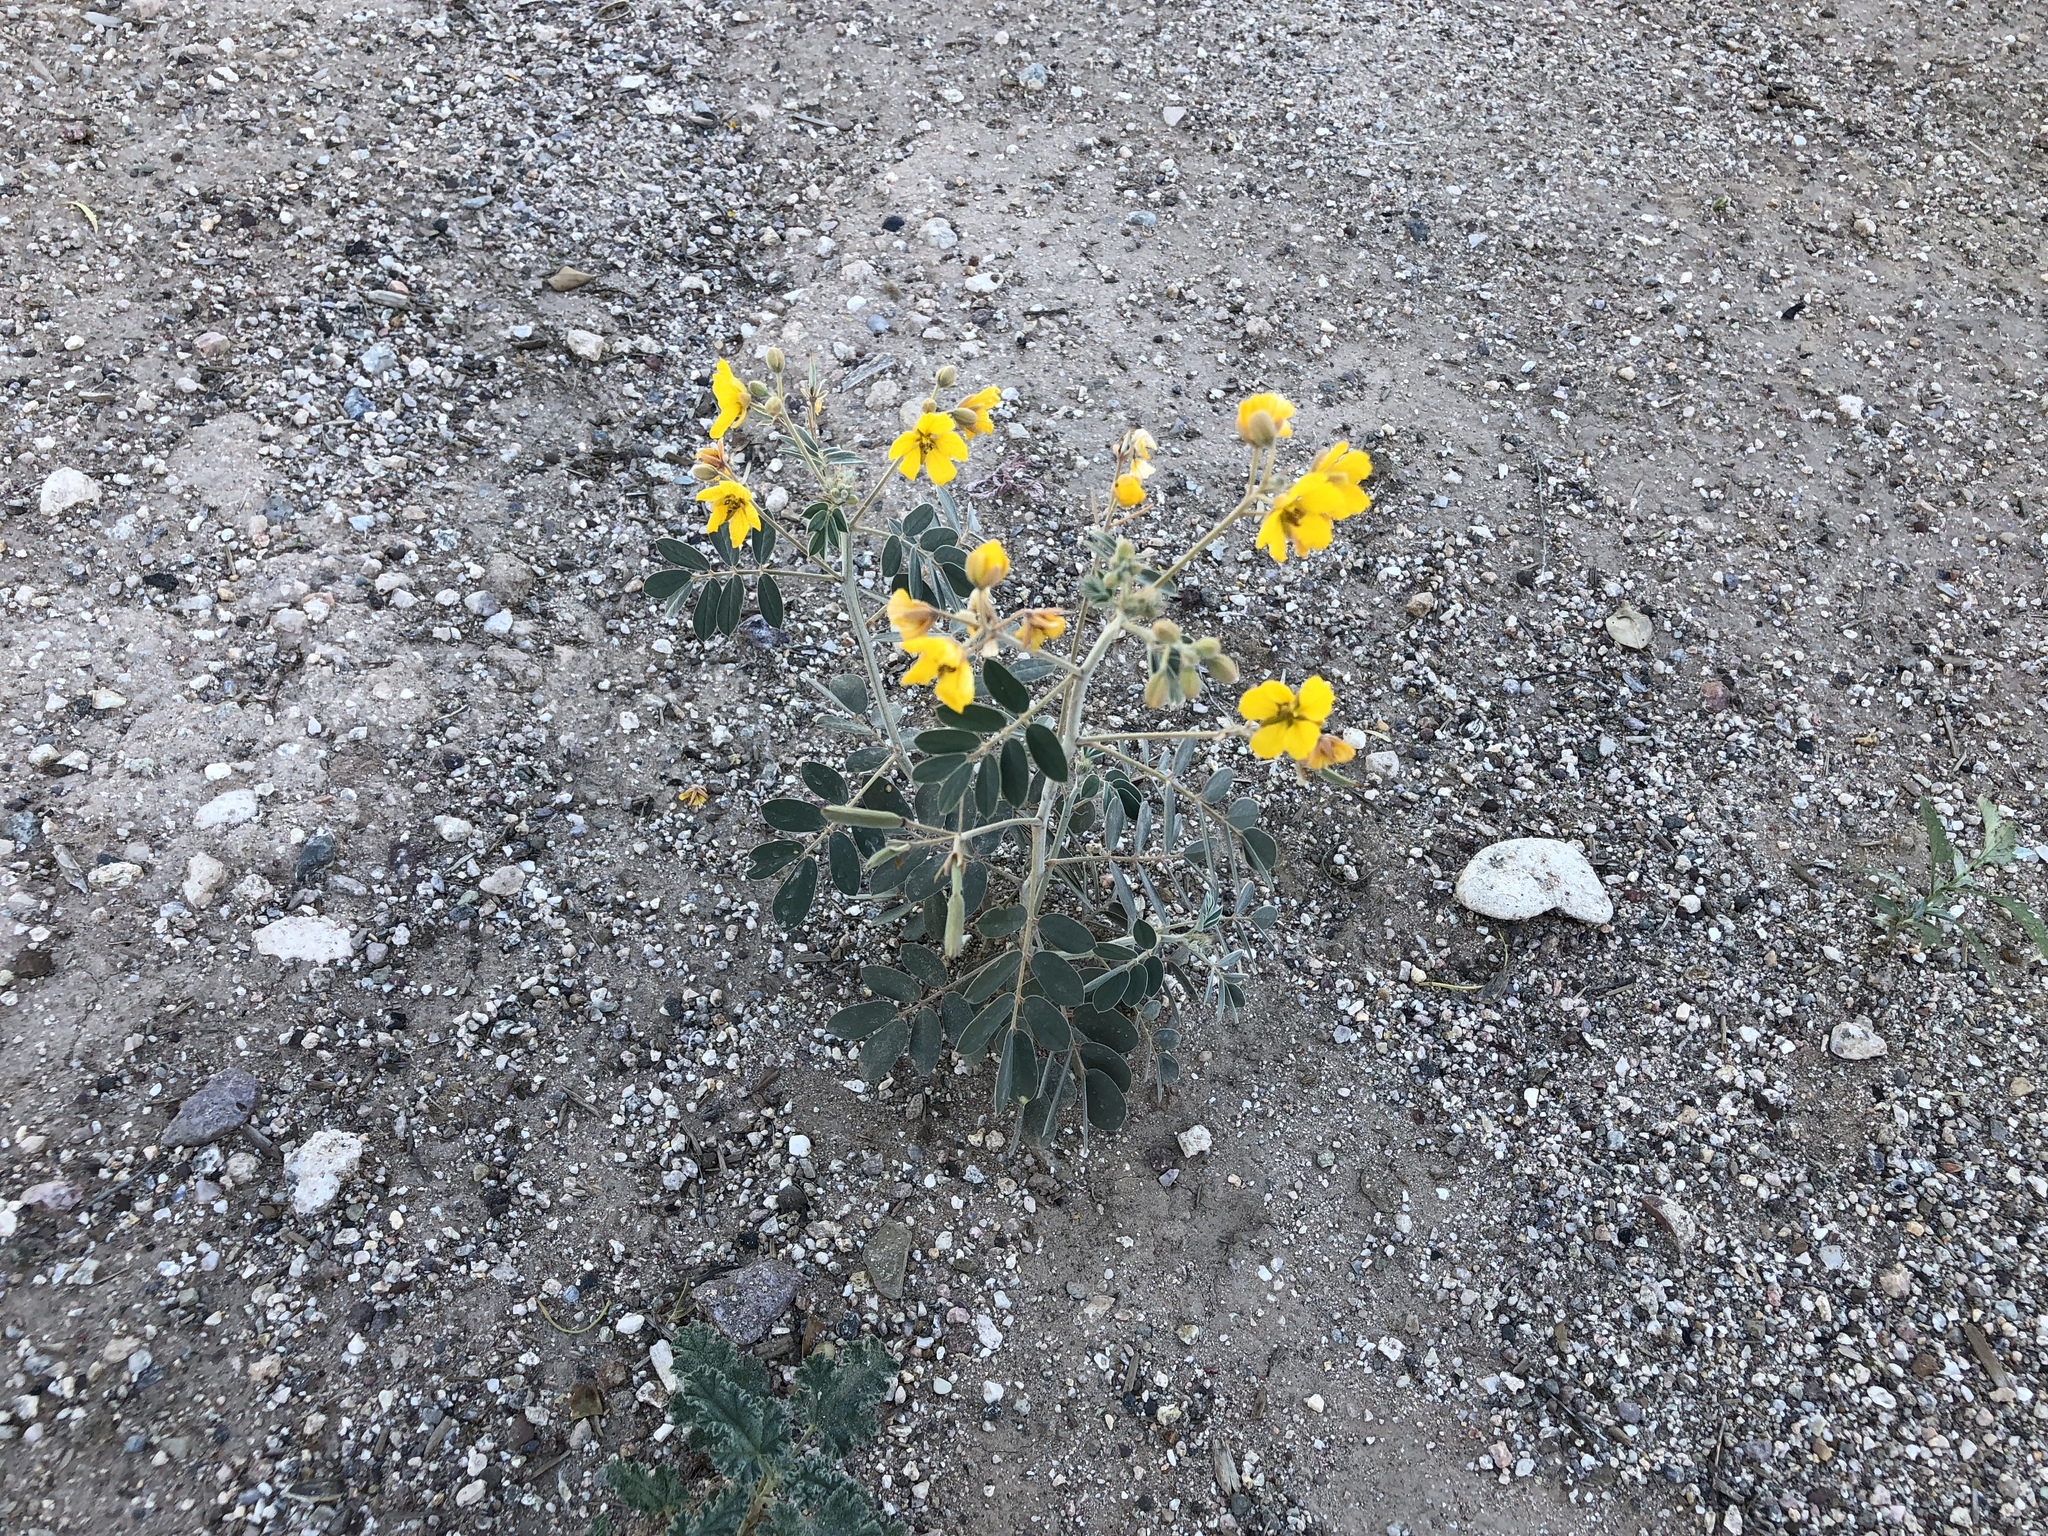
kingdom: Plantae
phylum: Tracheophyta
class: Magnoliopsida
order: Fabales
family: Fabaceae
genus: Senna
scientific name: Senna covesii
